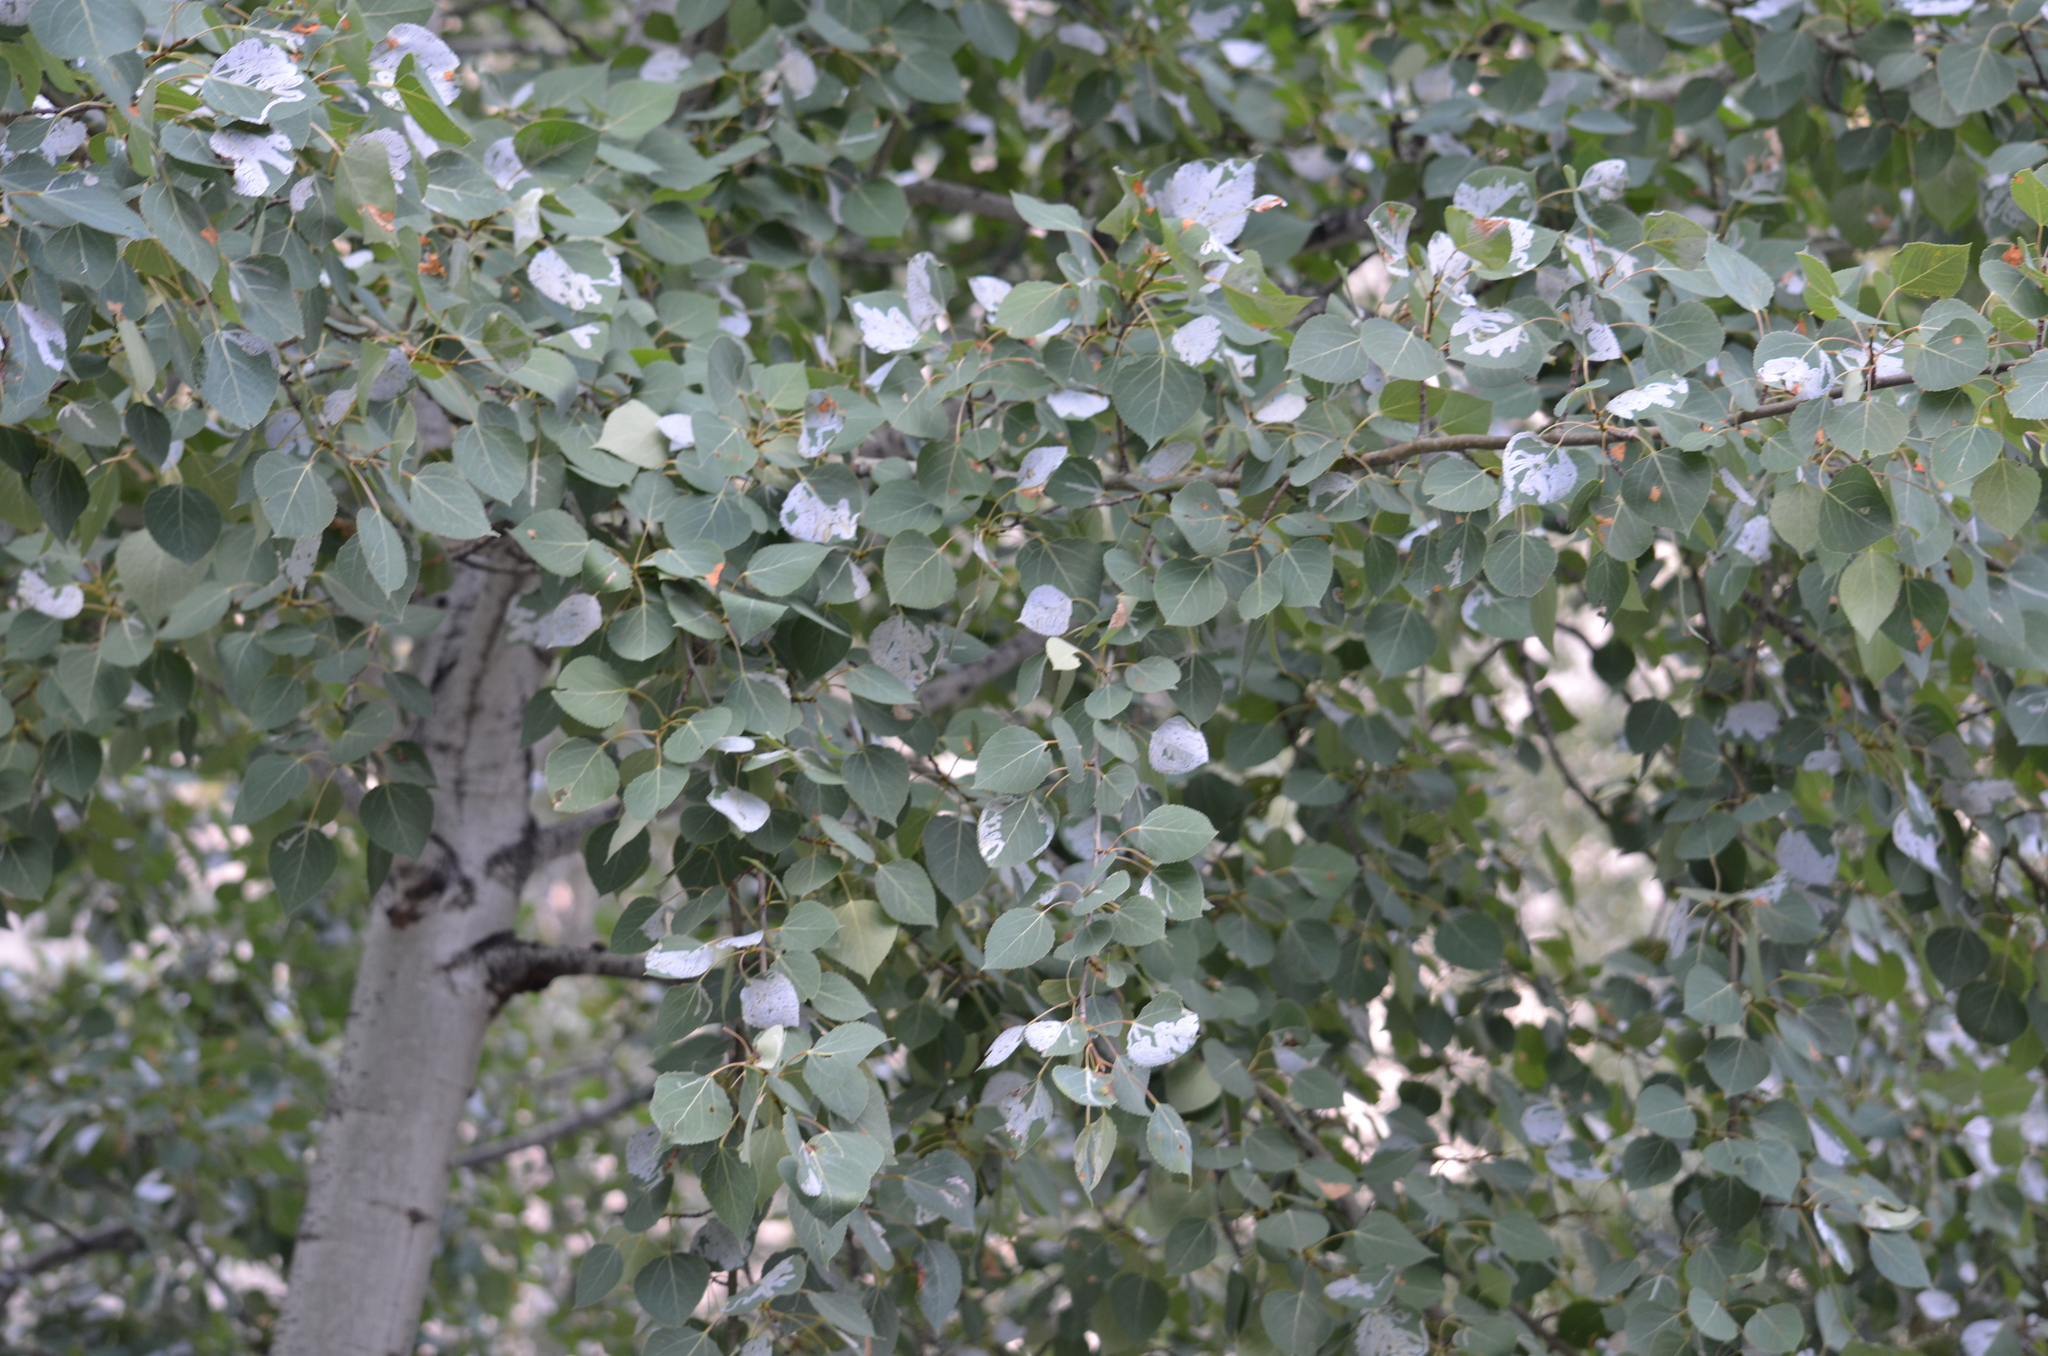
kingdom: Plantae
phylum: Tracheophyta
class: Magnoliopsida
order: Malpighiales
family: Salicaceae
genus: Populus
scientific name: Populus tremuloides
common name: Quaking aspen
